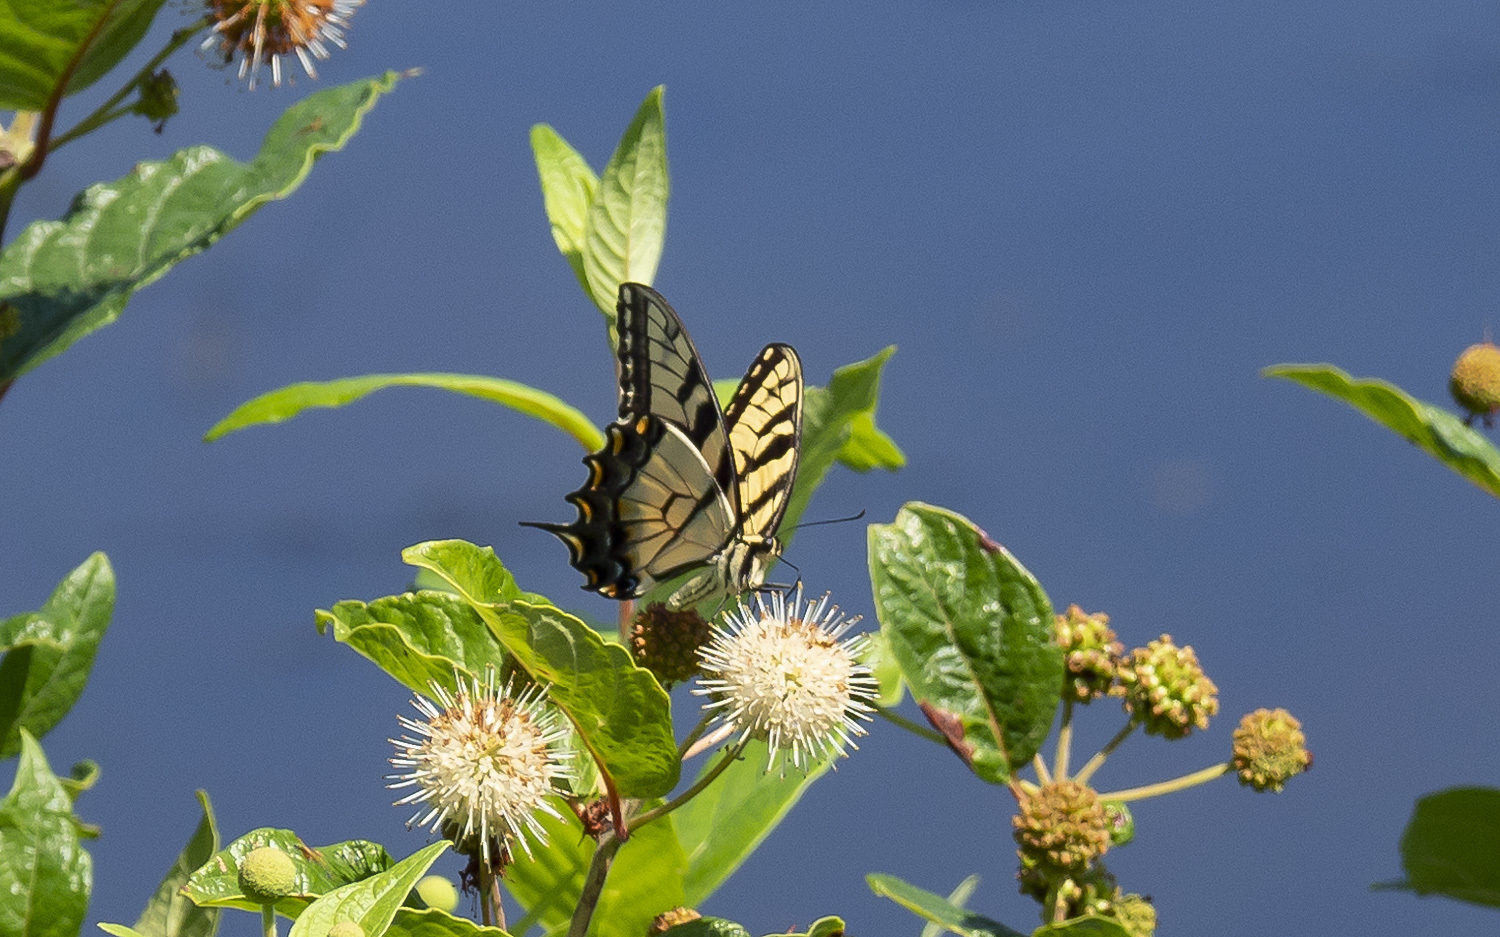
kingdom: Animalia
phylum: Arthropoda
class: Insecta
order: Lepidoptera
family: Papilionidae
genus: Papilio
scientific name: Papilio glaucus
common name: Tiger swallowtail
